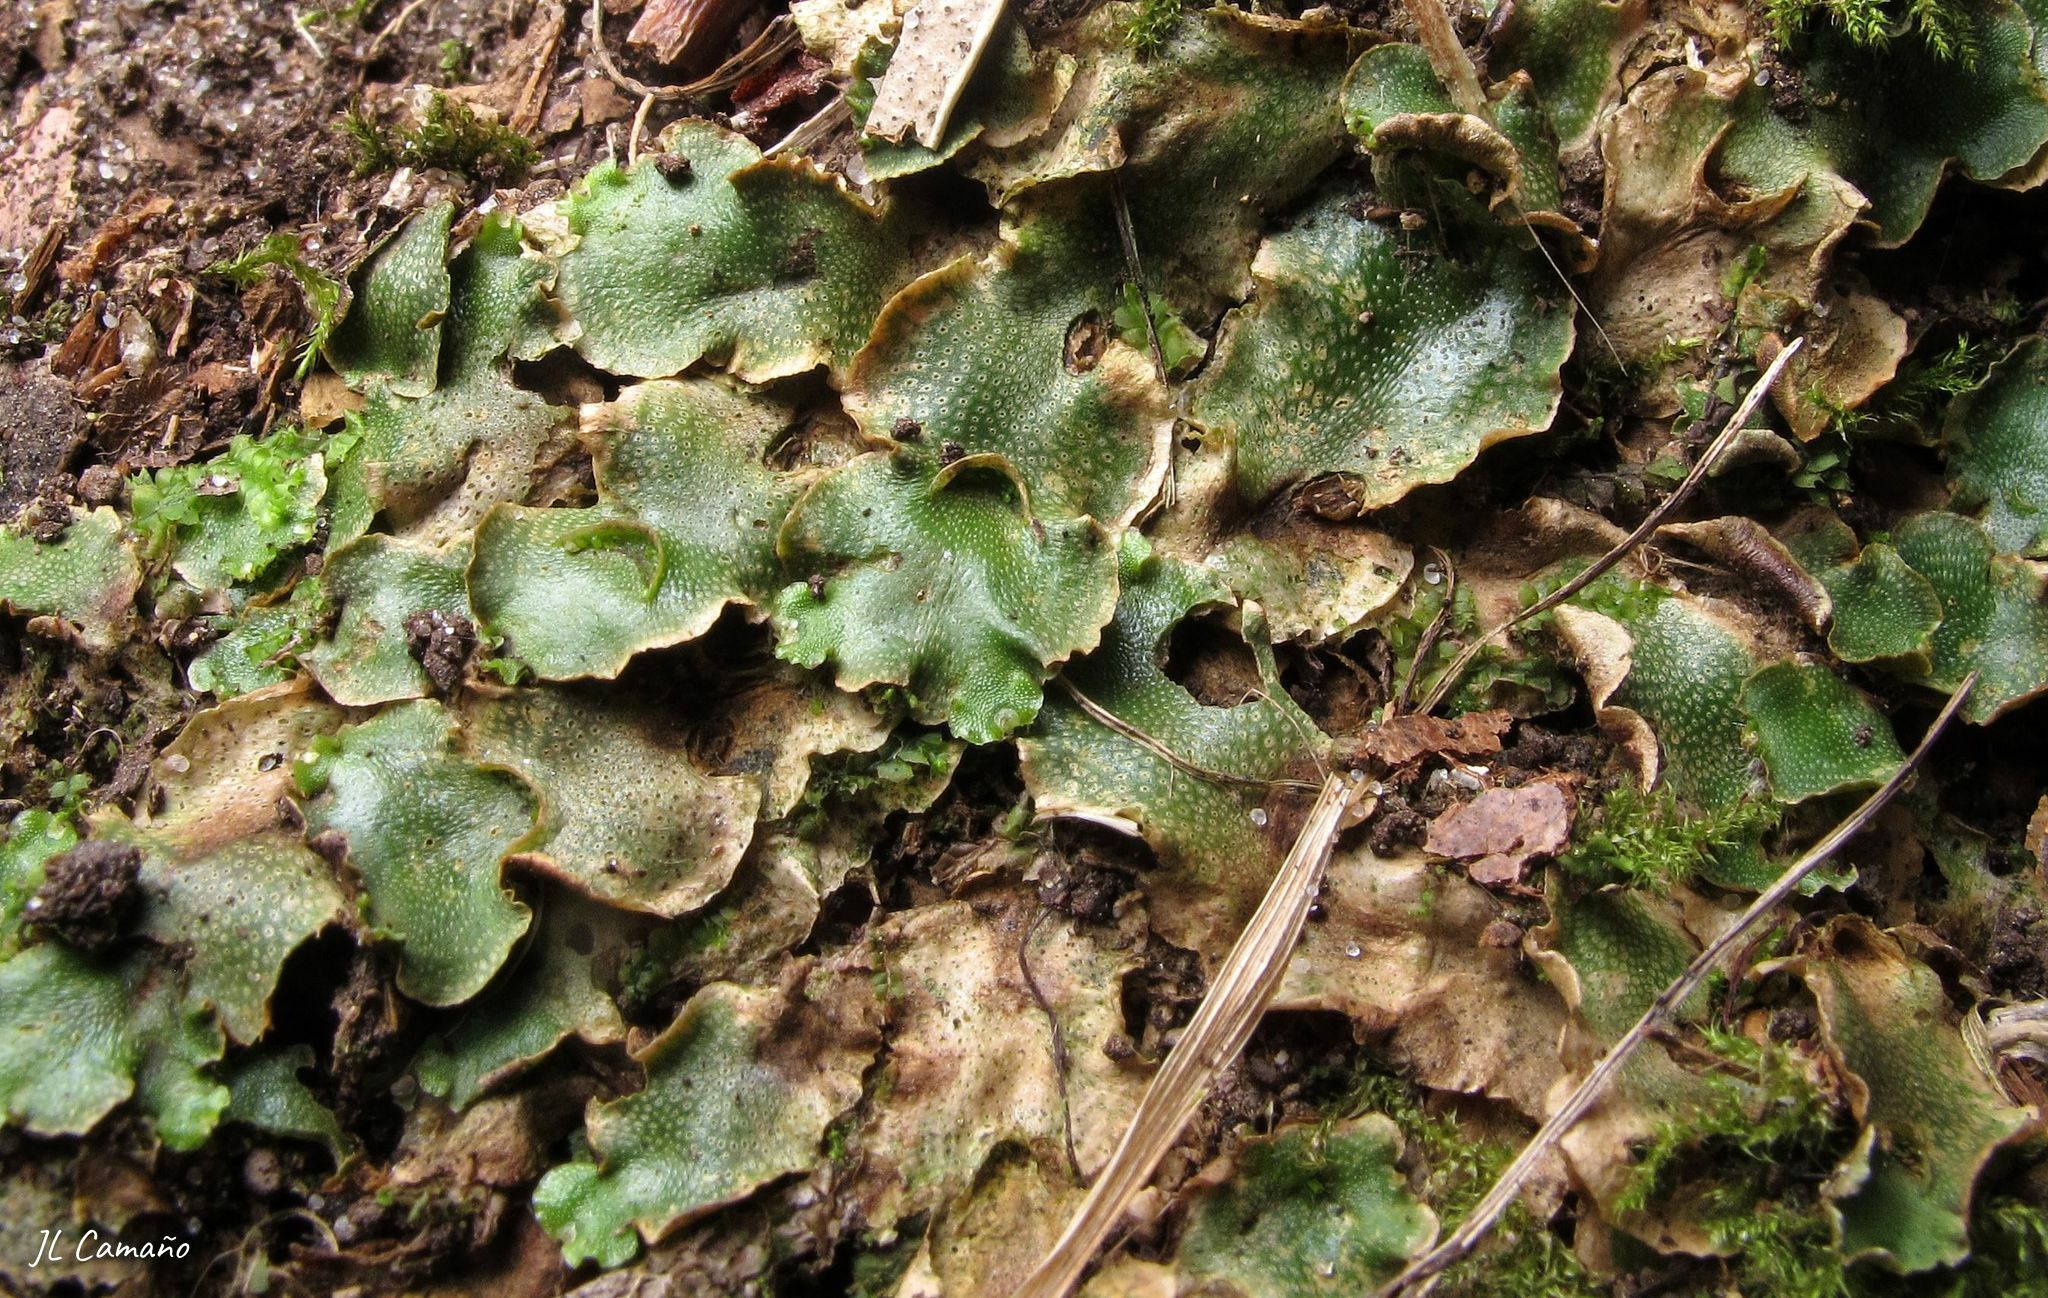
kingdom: Plantae
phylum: Marchantiophyta
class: Marchantiopsida
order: Lunulariales
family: Lunulariaceae
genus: Lunularia
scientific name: Lunularia cruciata
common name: Crescent-cup liverwort
